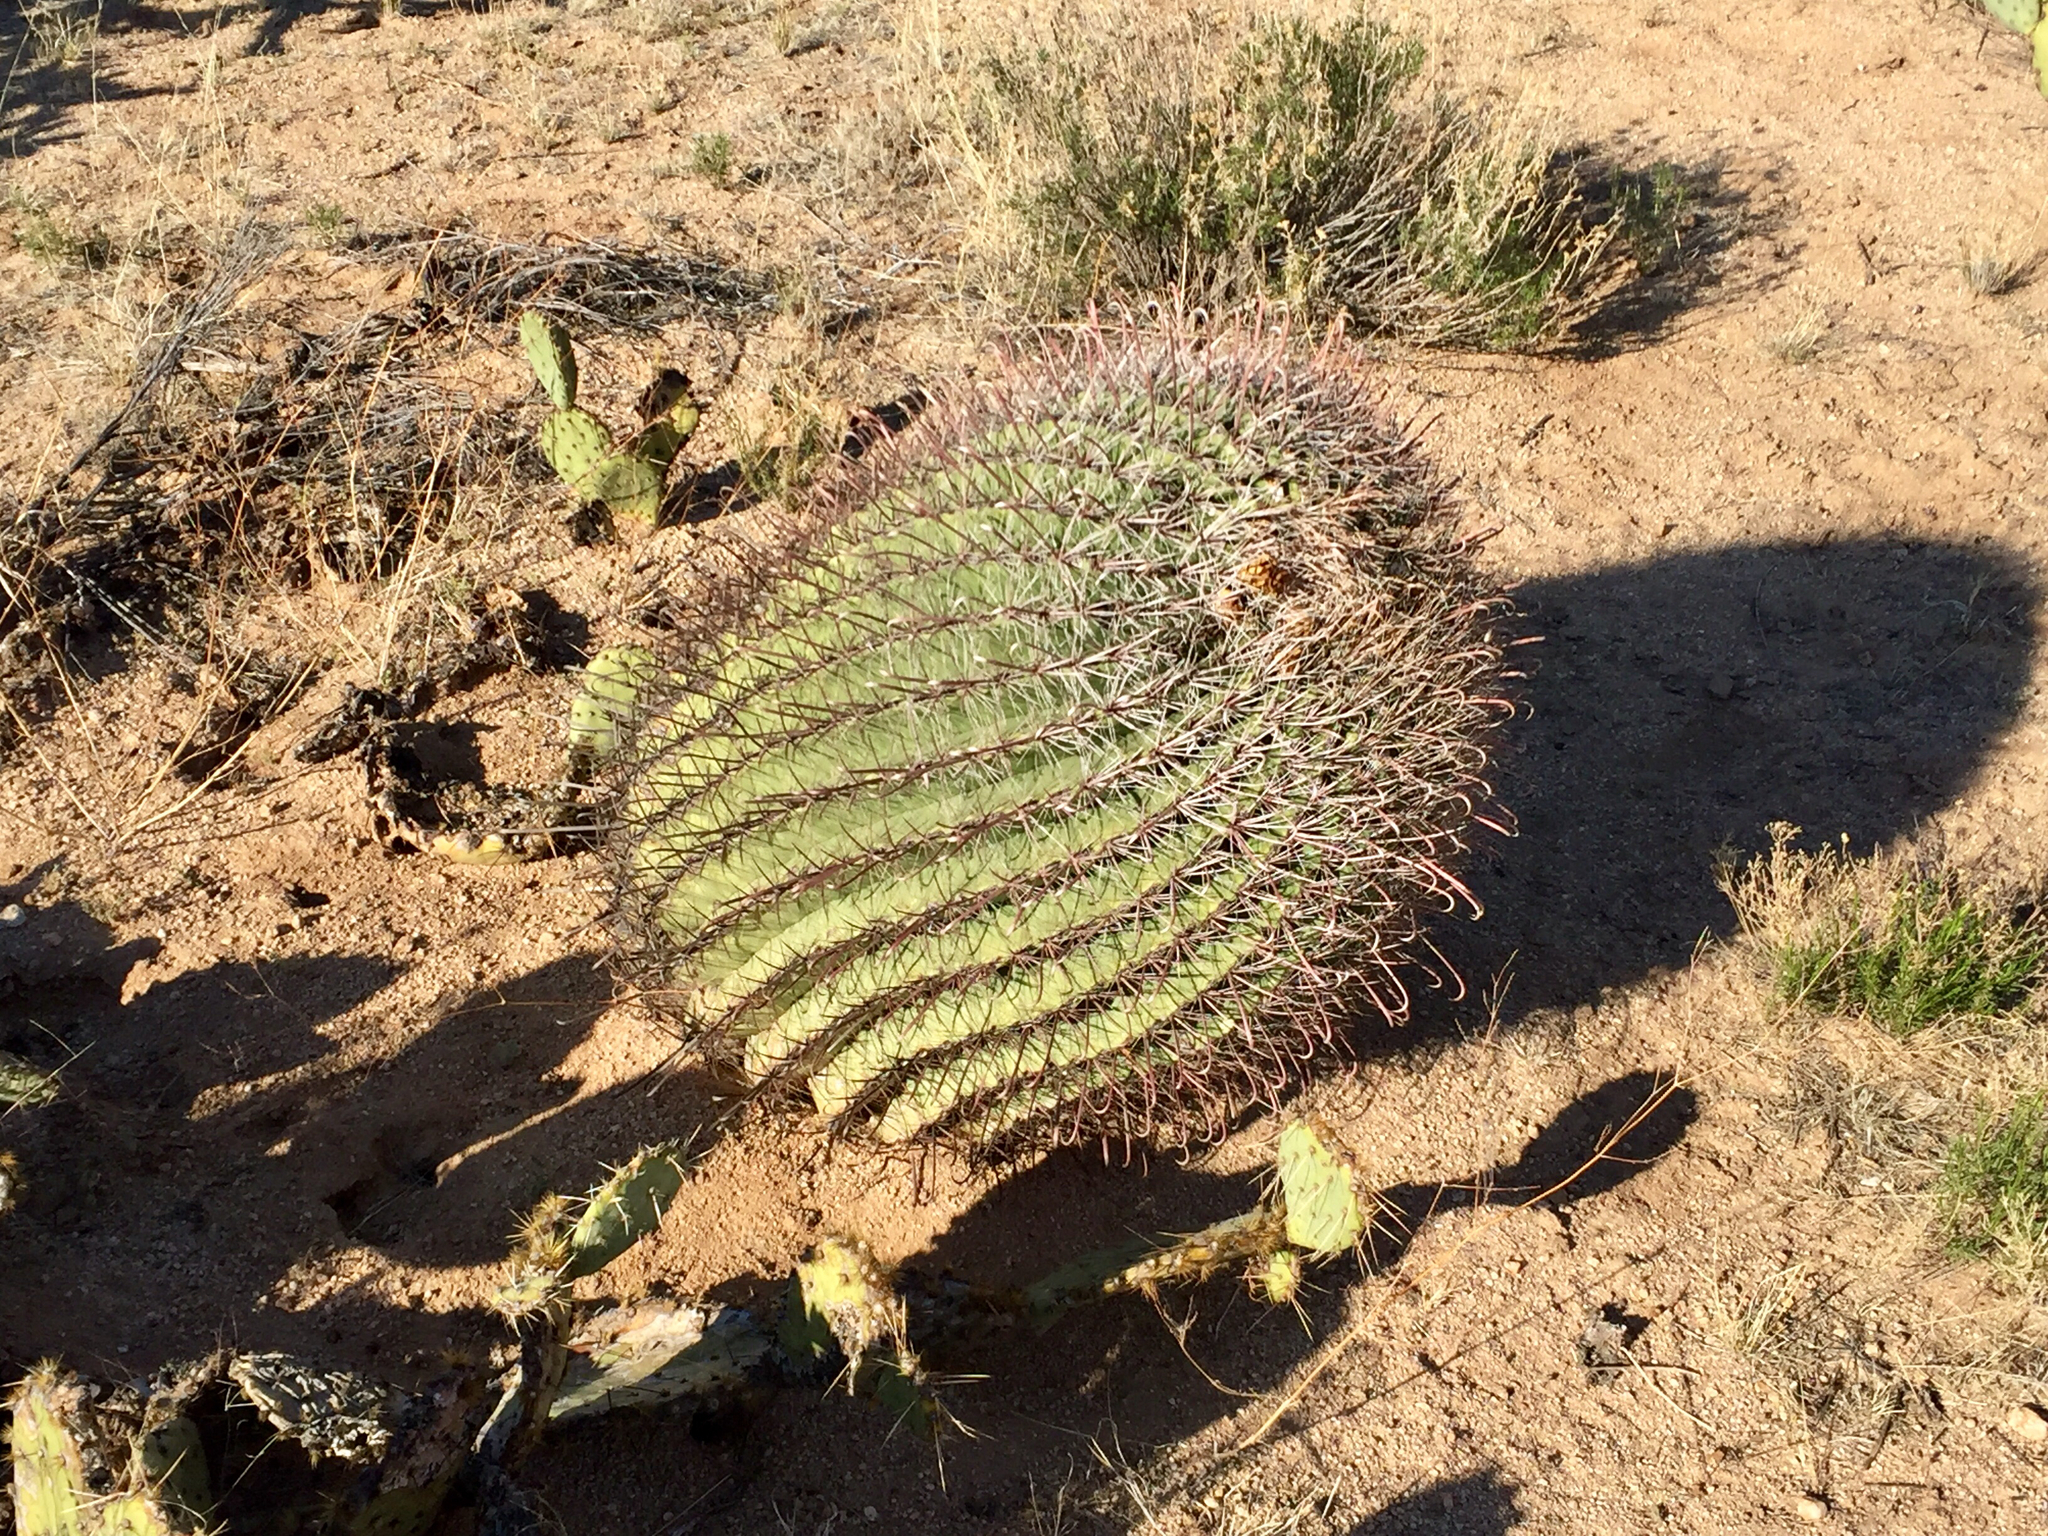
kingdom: Plantae
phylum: Tracheophyta
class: Magnoliopsida
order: Caryophyllales
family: Cactaceae
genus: Ferocactus
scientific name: Ferocactus wislizeni
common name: Candy barrel cactus
